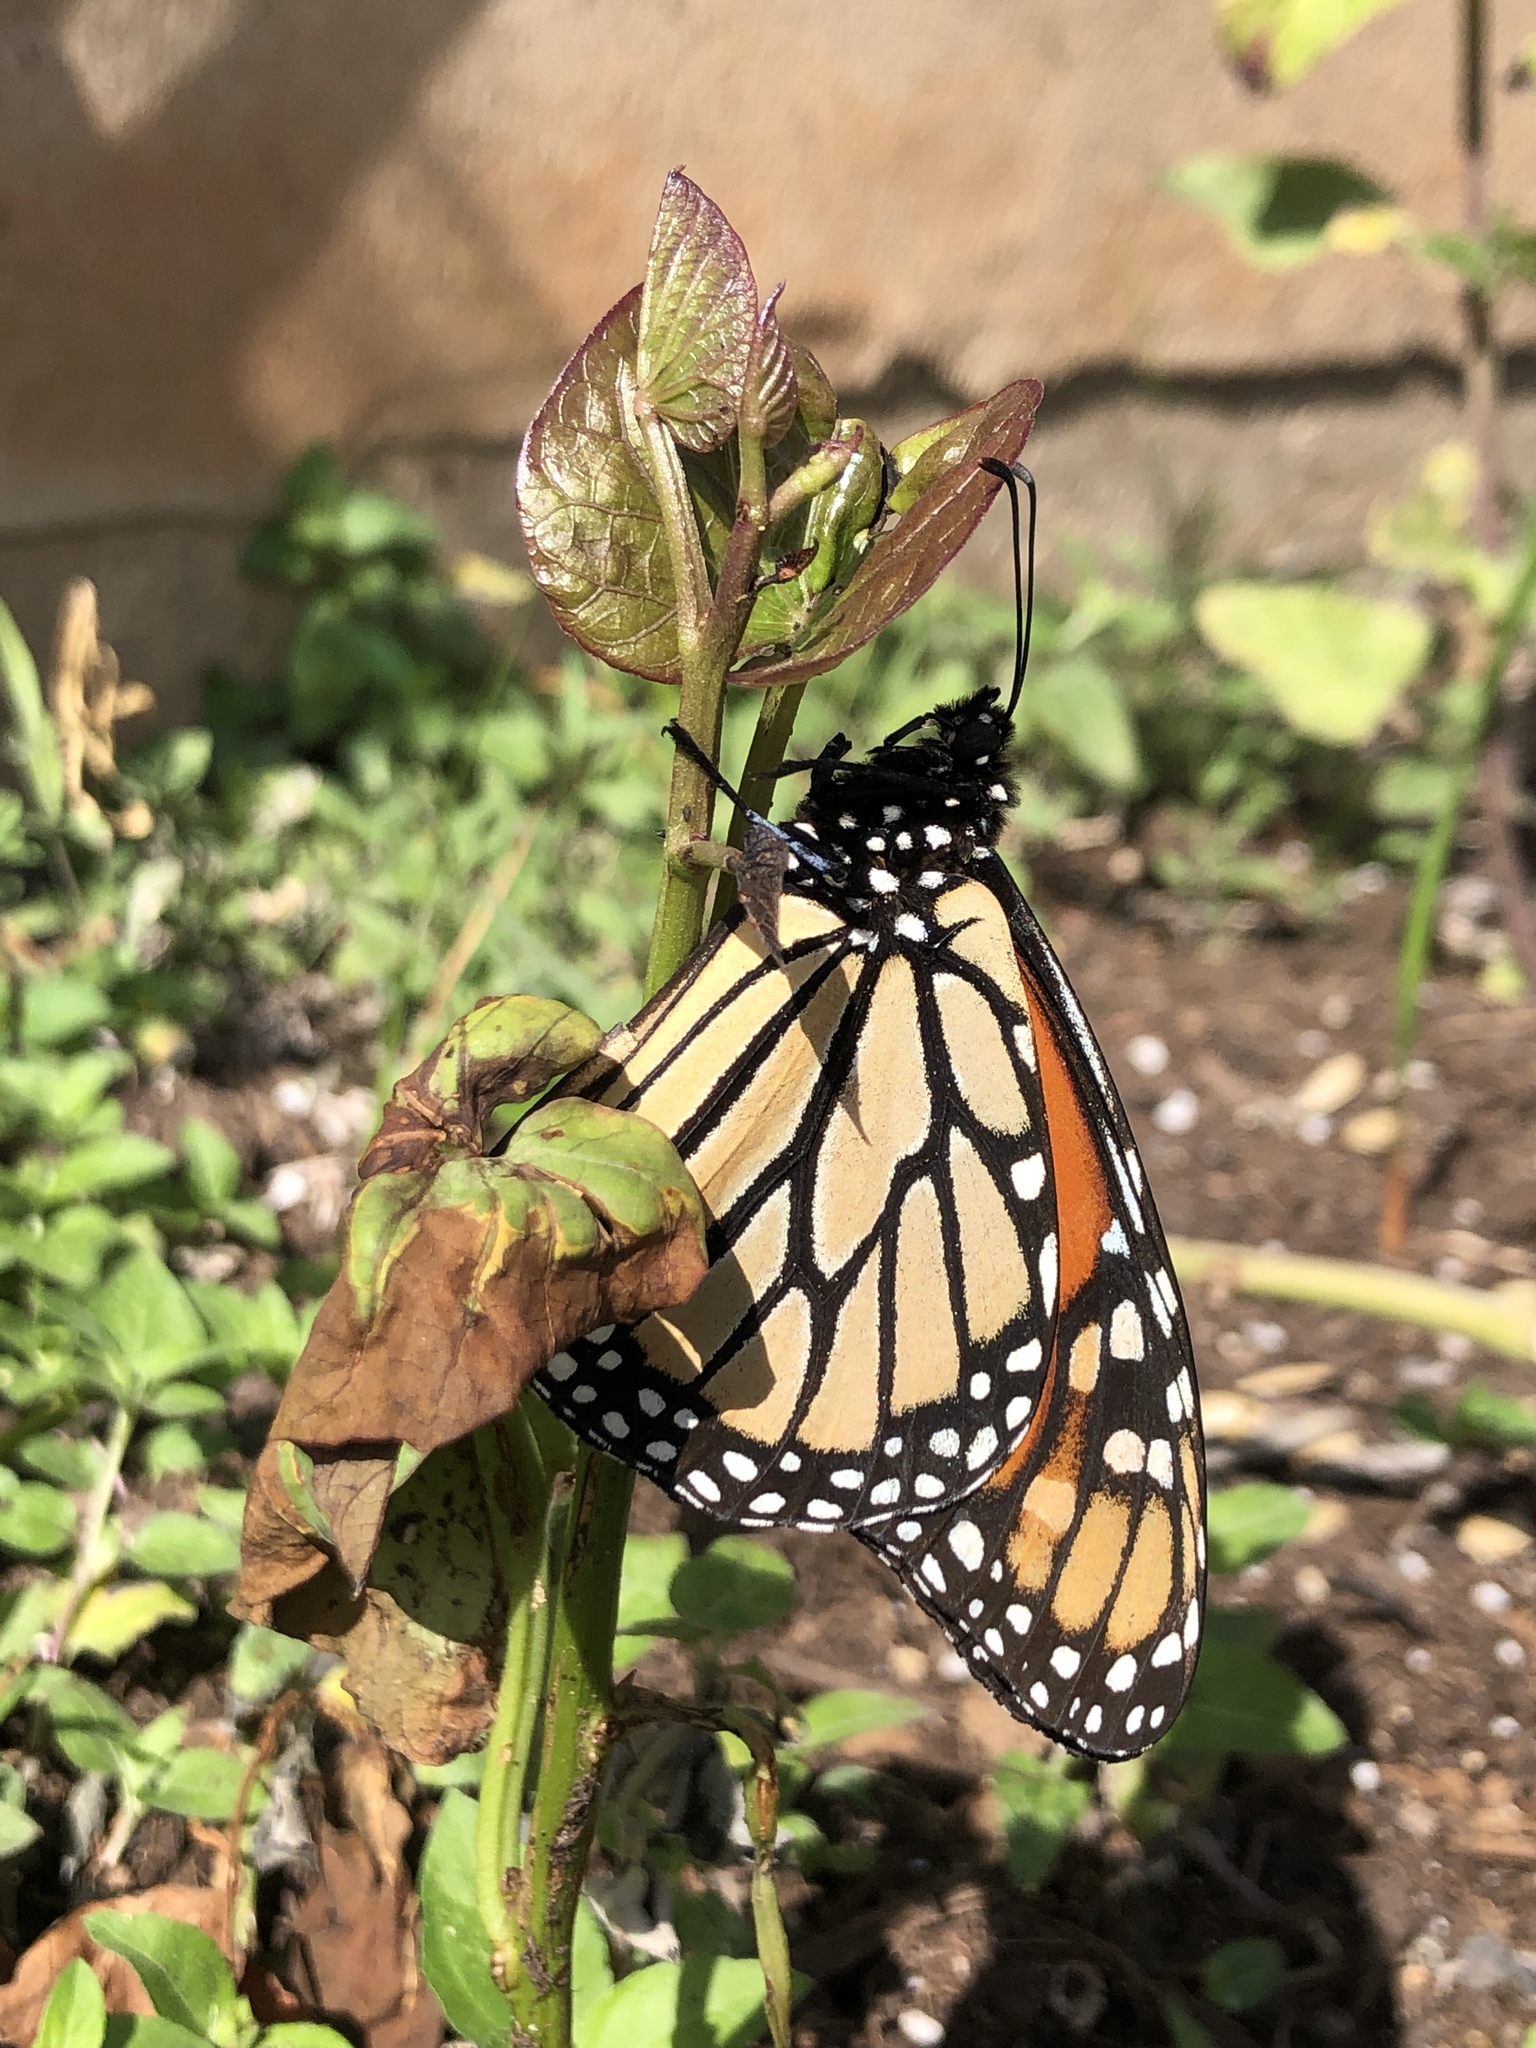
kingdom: Animalia
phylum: Arthropoda
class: Insecta
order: Lepidoptera
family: Nymphalidae
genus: Danaus
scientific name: Danaus plexippus
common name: Monarch
